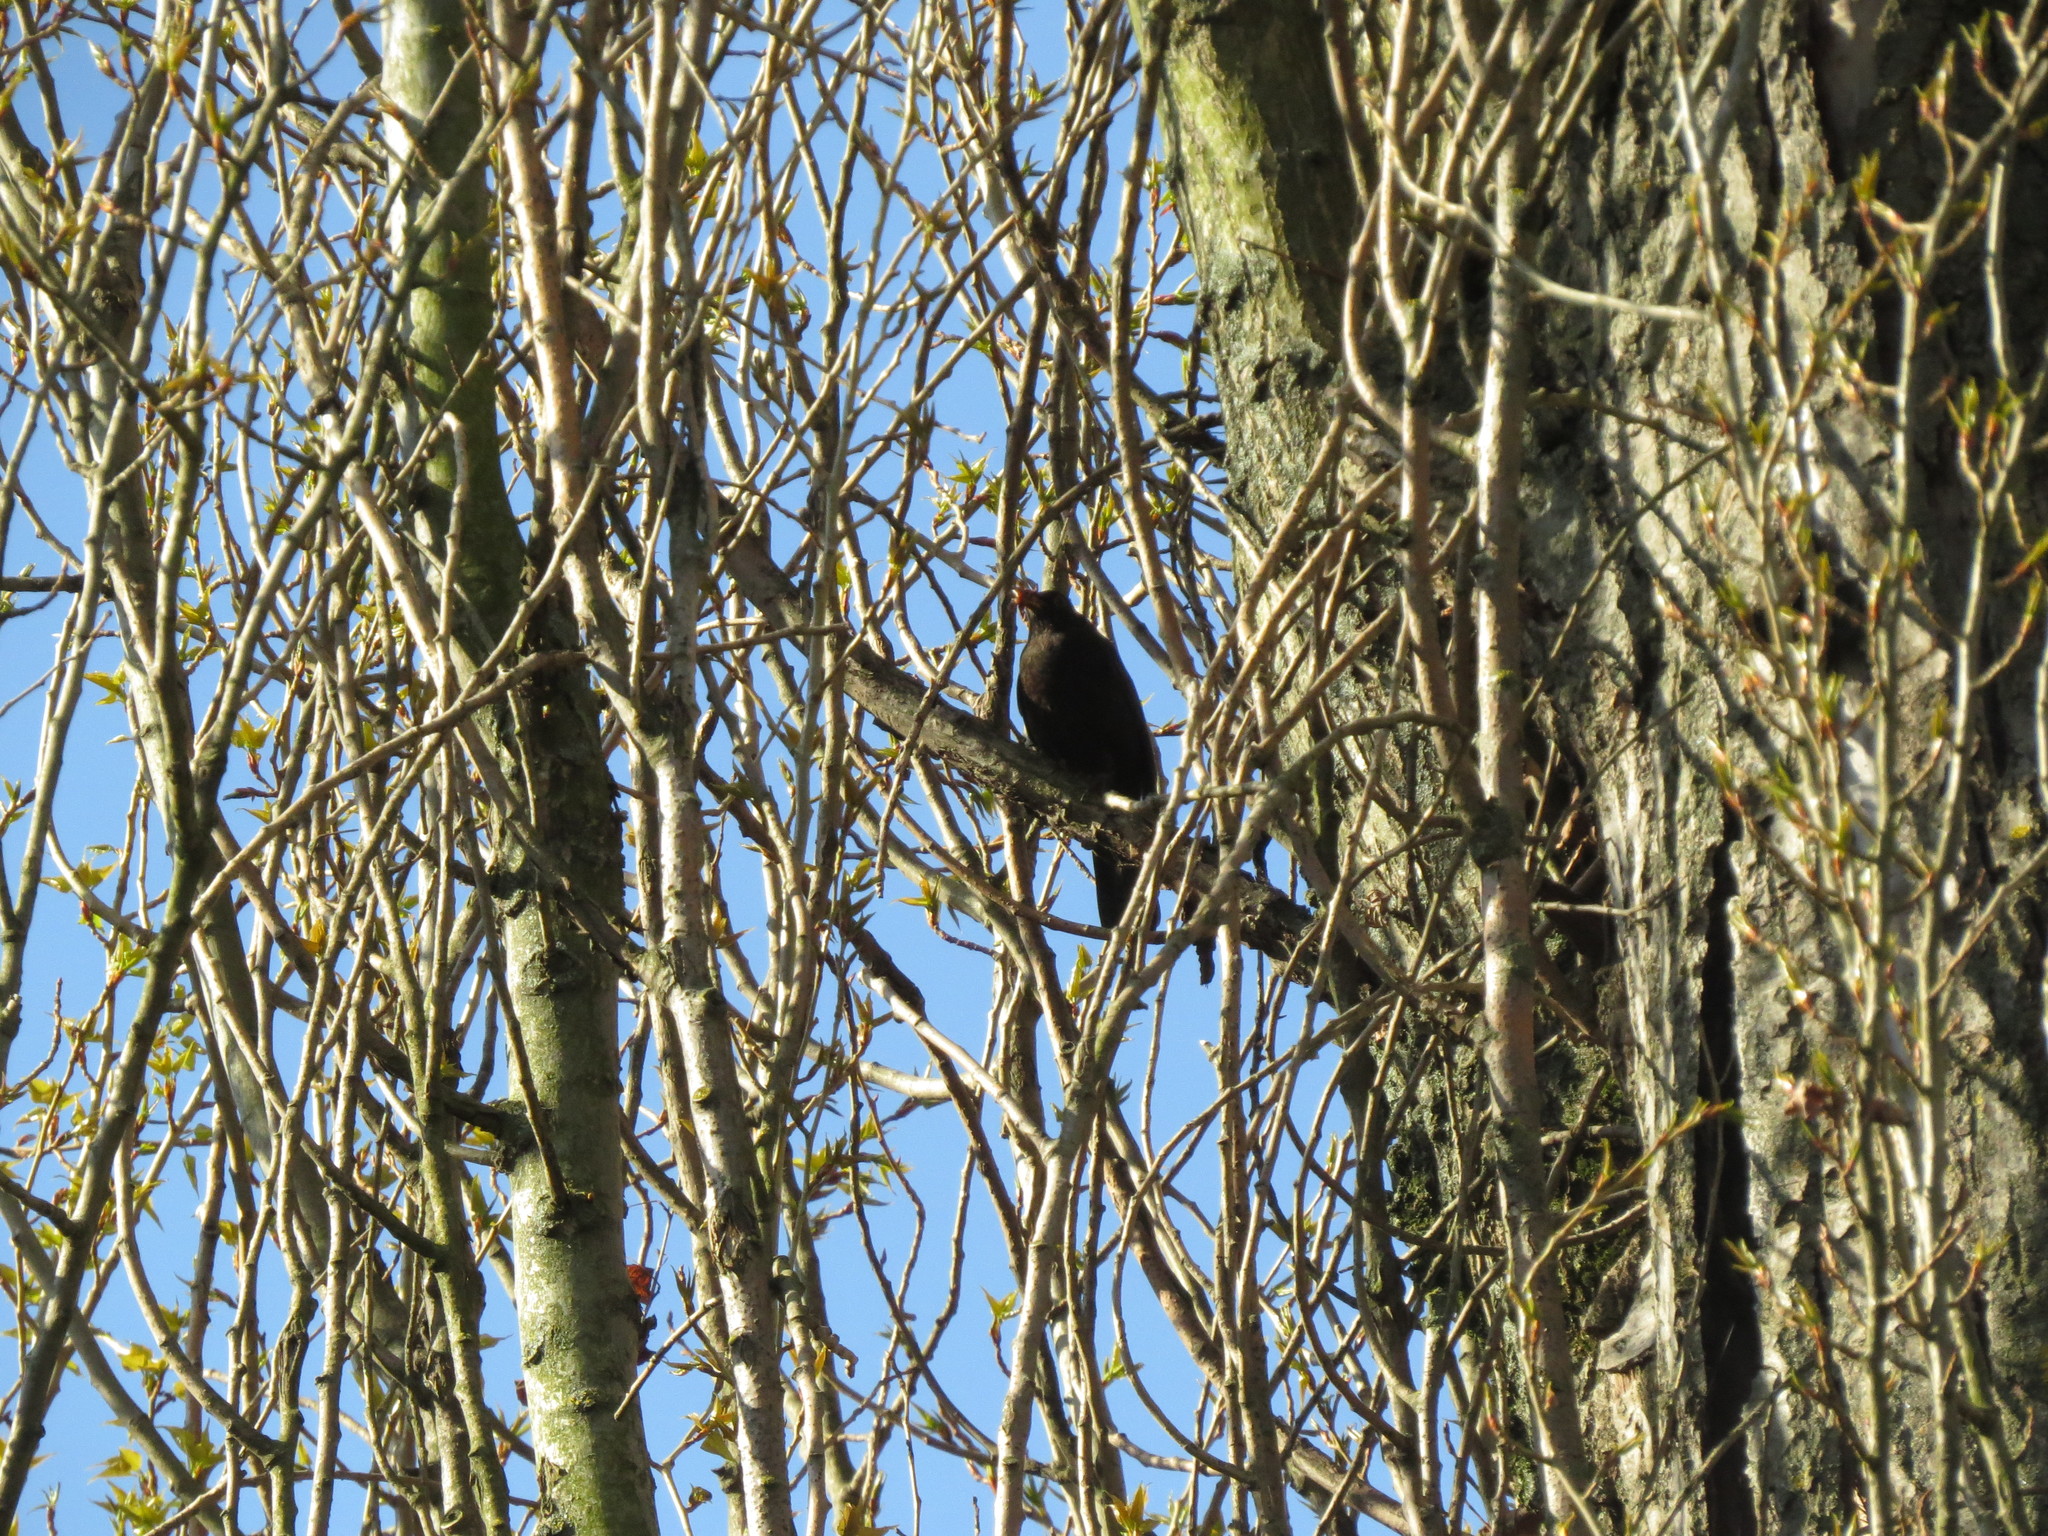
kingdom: Animalia
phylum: Chordata
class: Aves
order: Passeriformes
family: Turdidae
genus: Turdus
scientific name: Turdus merula
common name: Common blackbird
